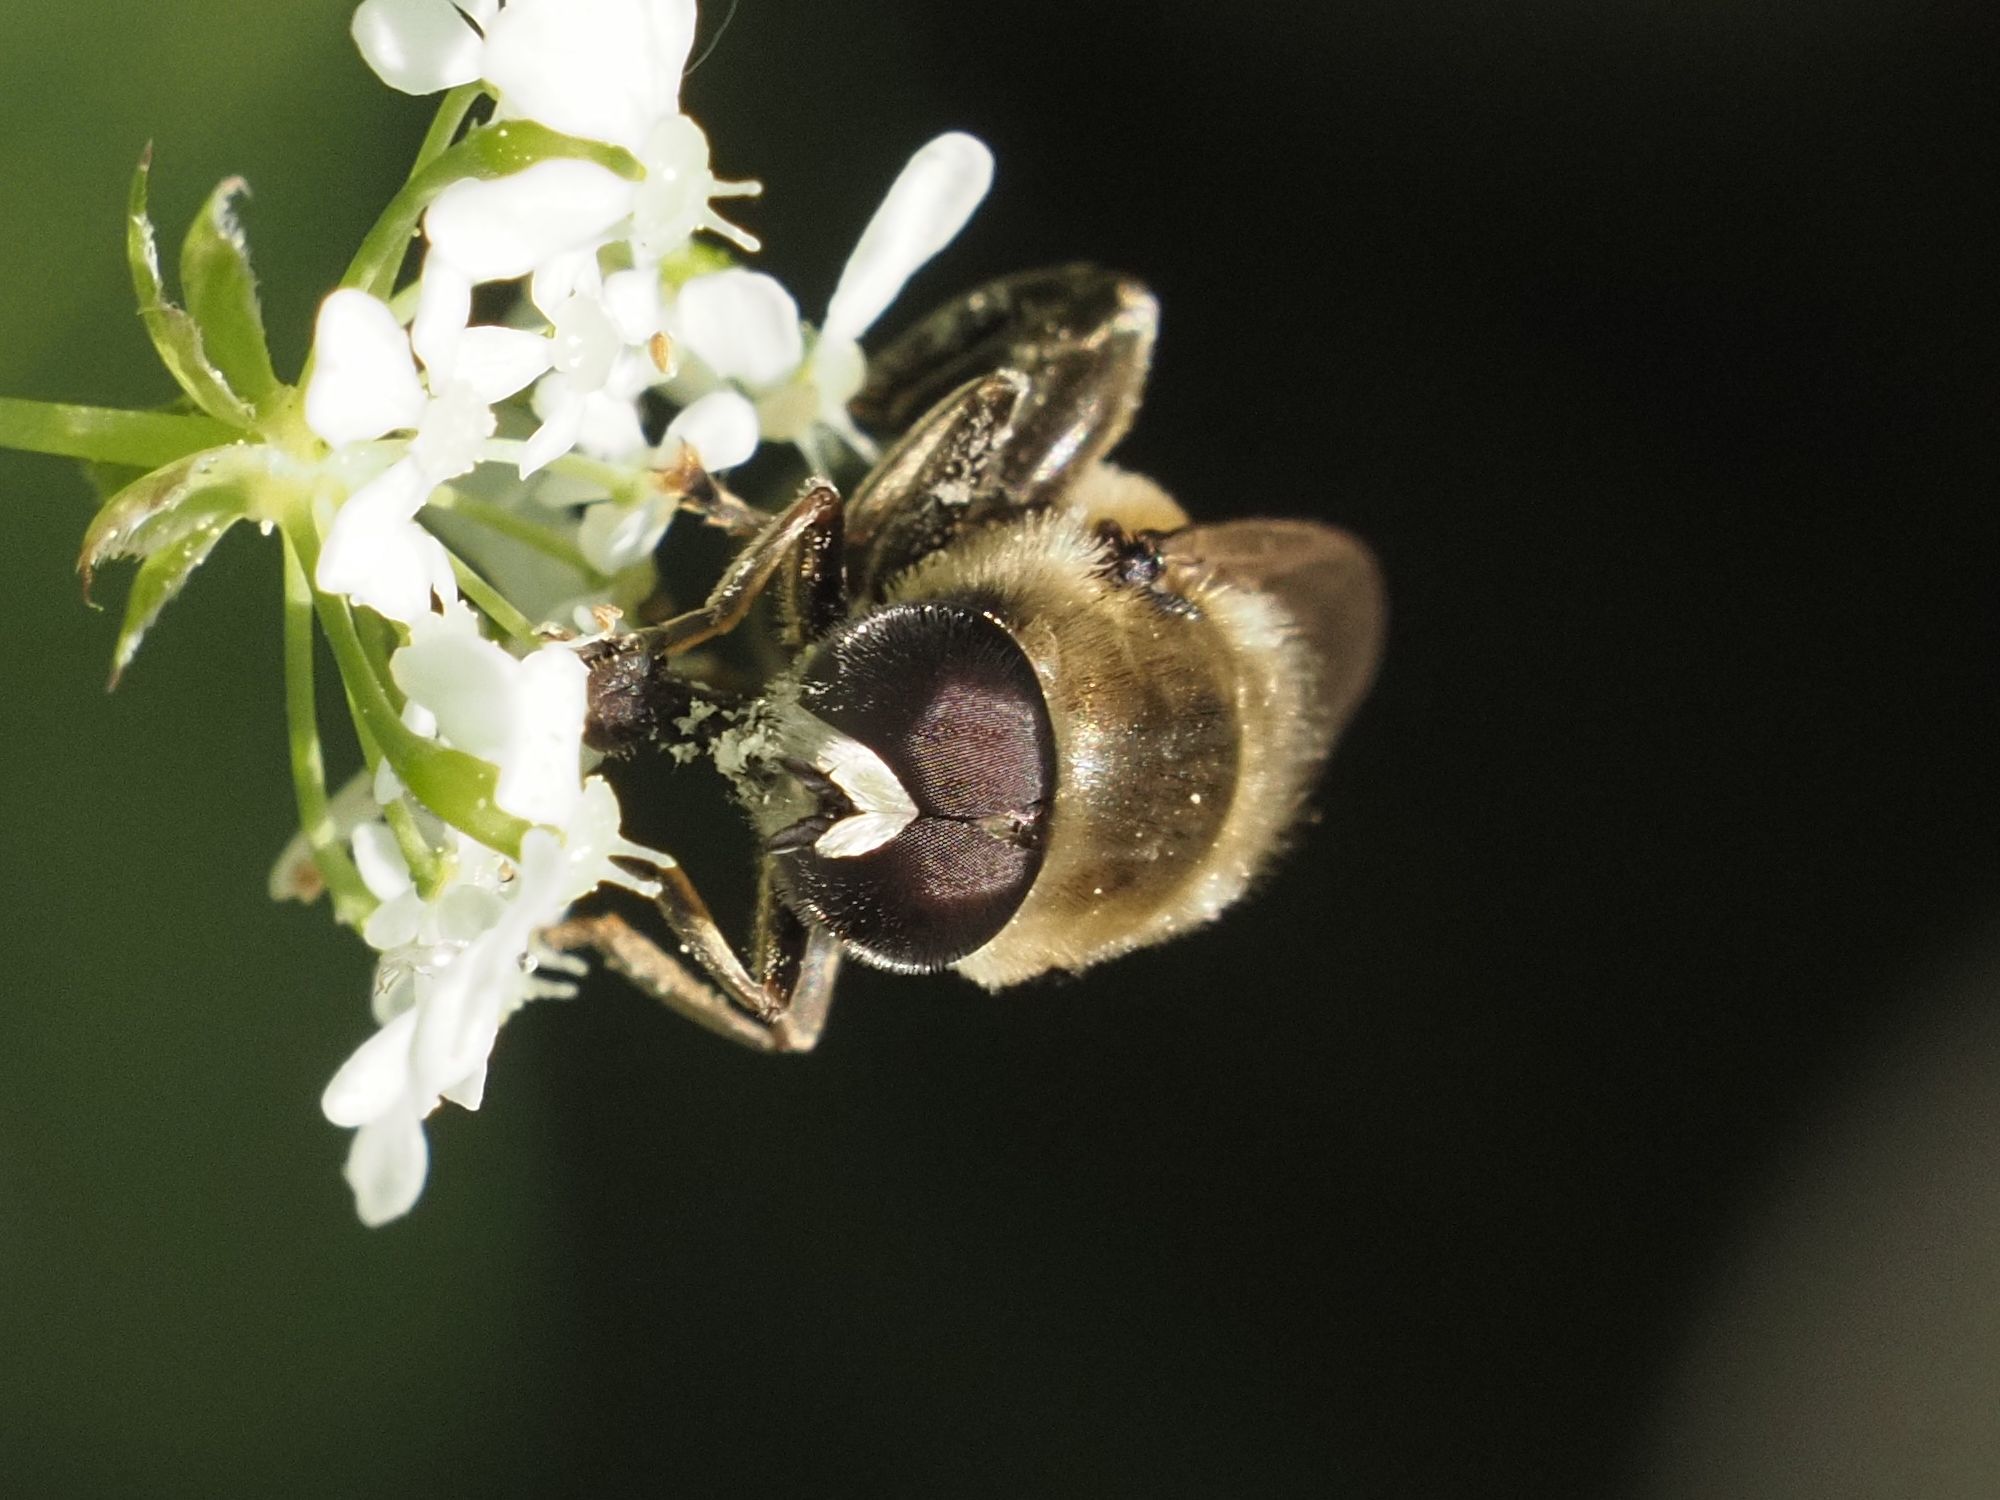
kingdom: Animalia
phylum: Arthropoda
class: Insecta
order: Diptera
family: Syrphidae
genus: Merodon
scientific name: Merodon avidus
